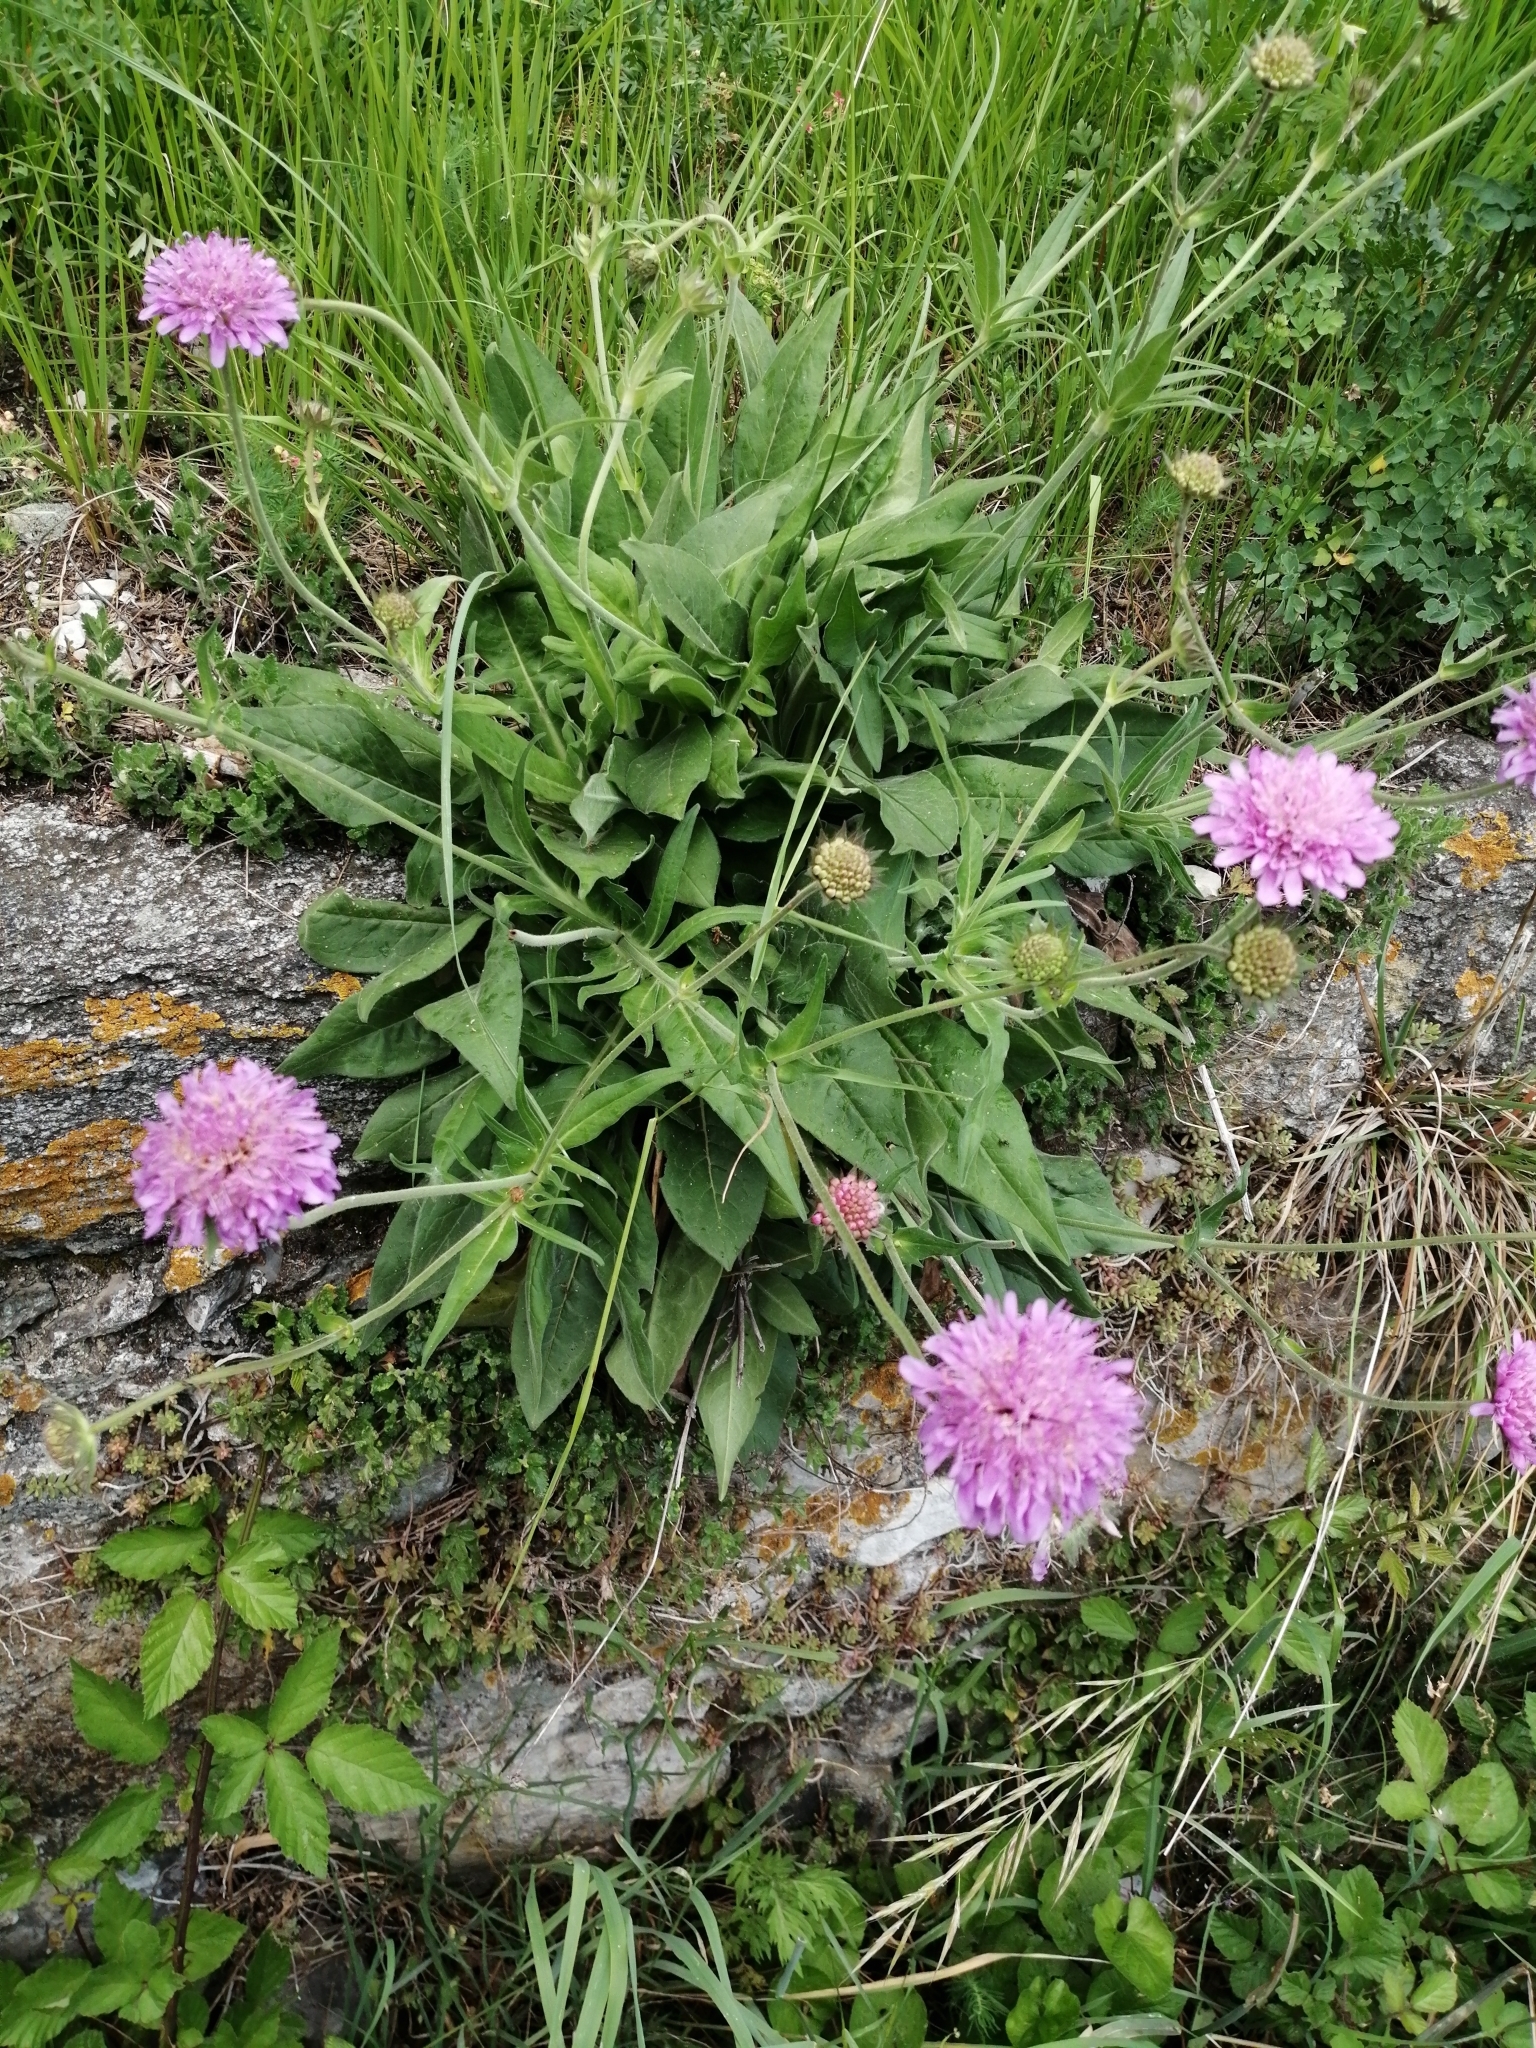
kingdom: Plantae
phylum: Tracheophyta
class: Magnoliopsida
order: Dipsacales
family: Caprifoliaceae
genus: Knautia
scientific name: Knautia velutina
